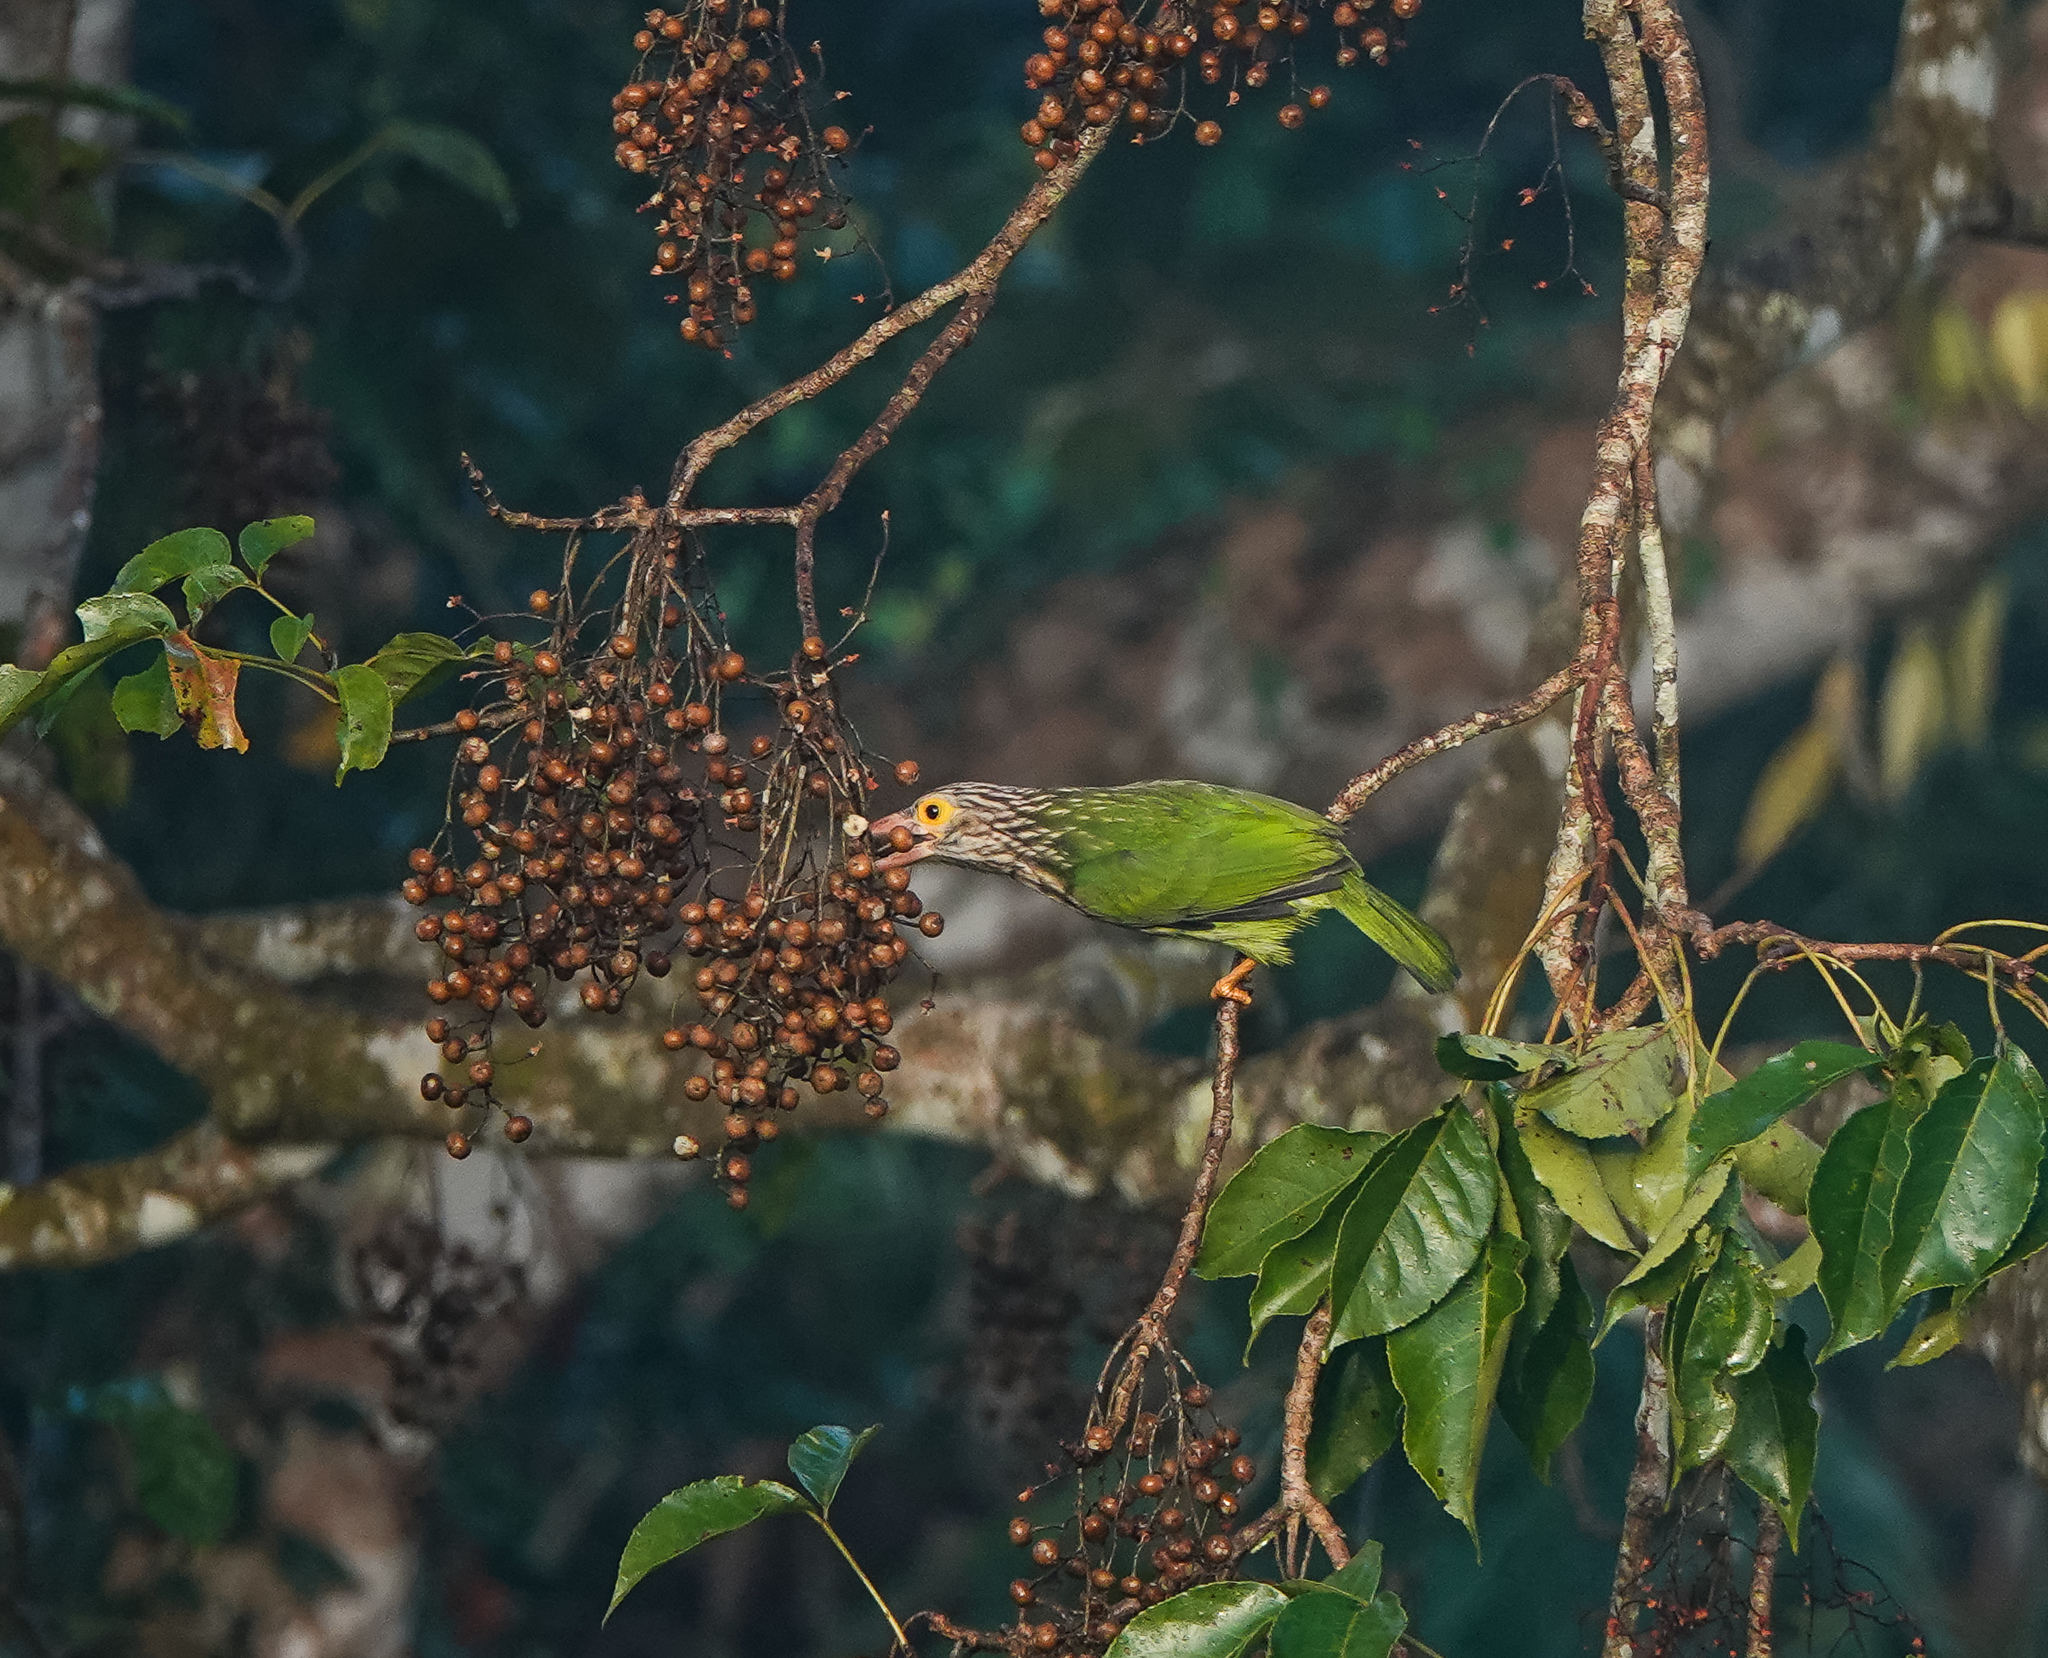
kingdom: Animalia
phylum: Chordata
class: Aves
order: Piciformes
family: Megalaimidae
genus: Psilopogon
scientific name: Psilopogon lineatus
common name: Lineated barbet
